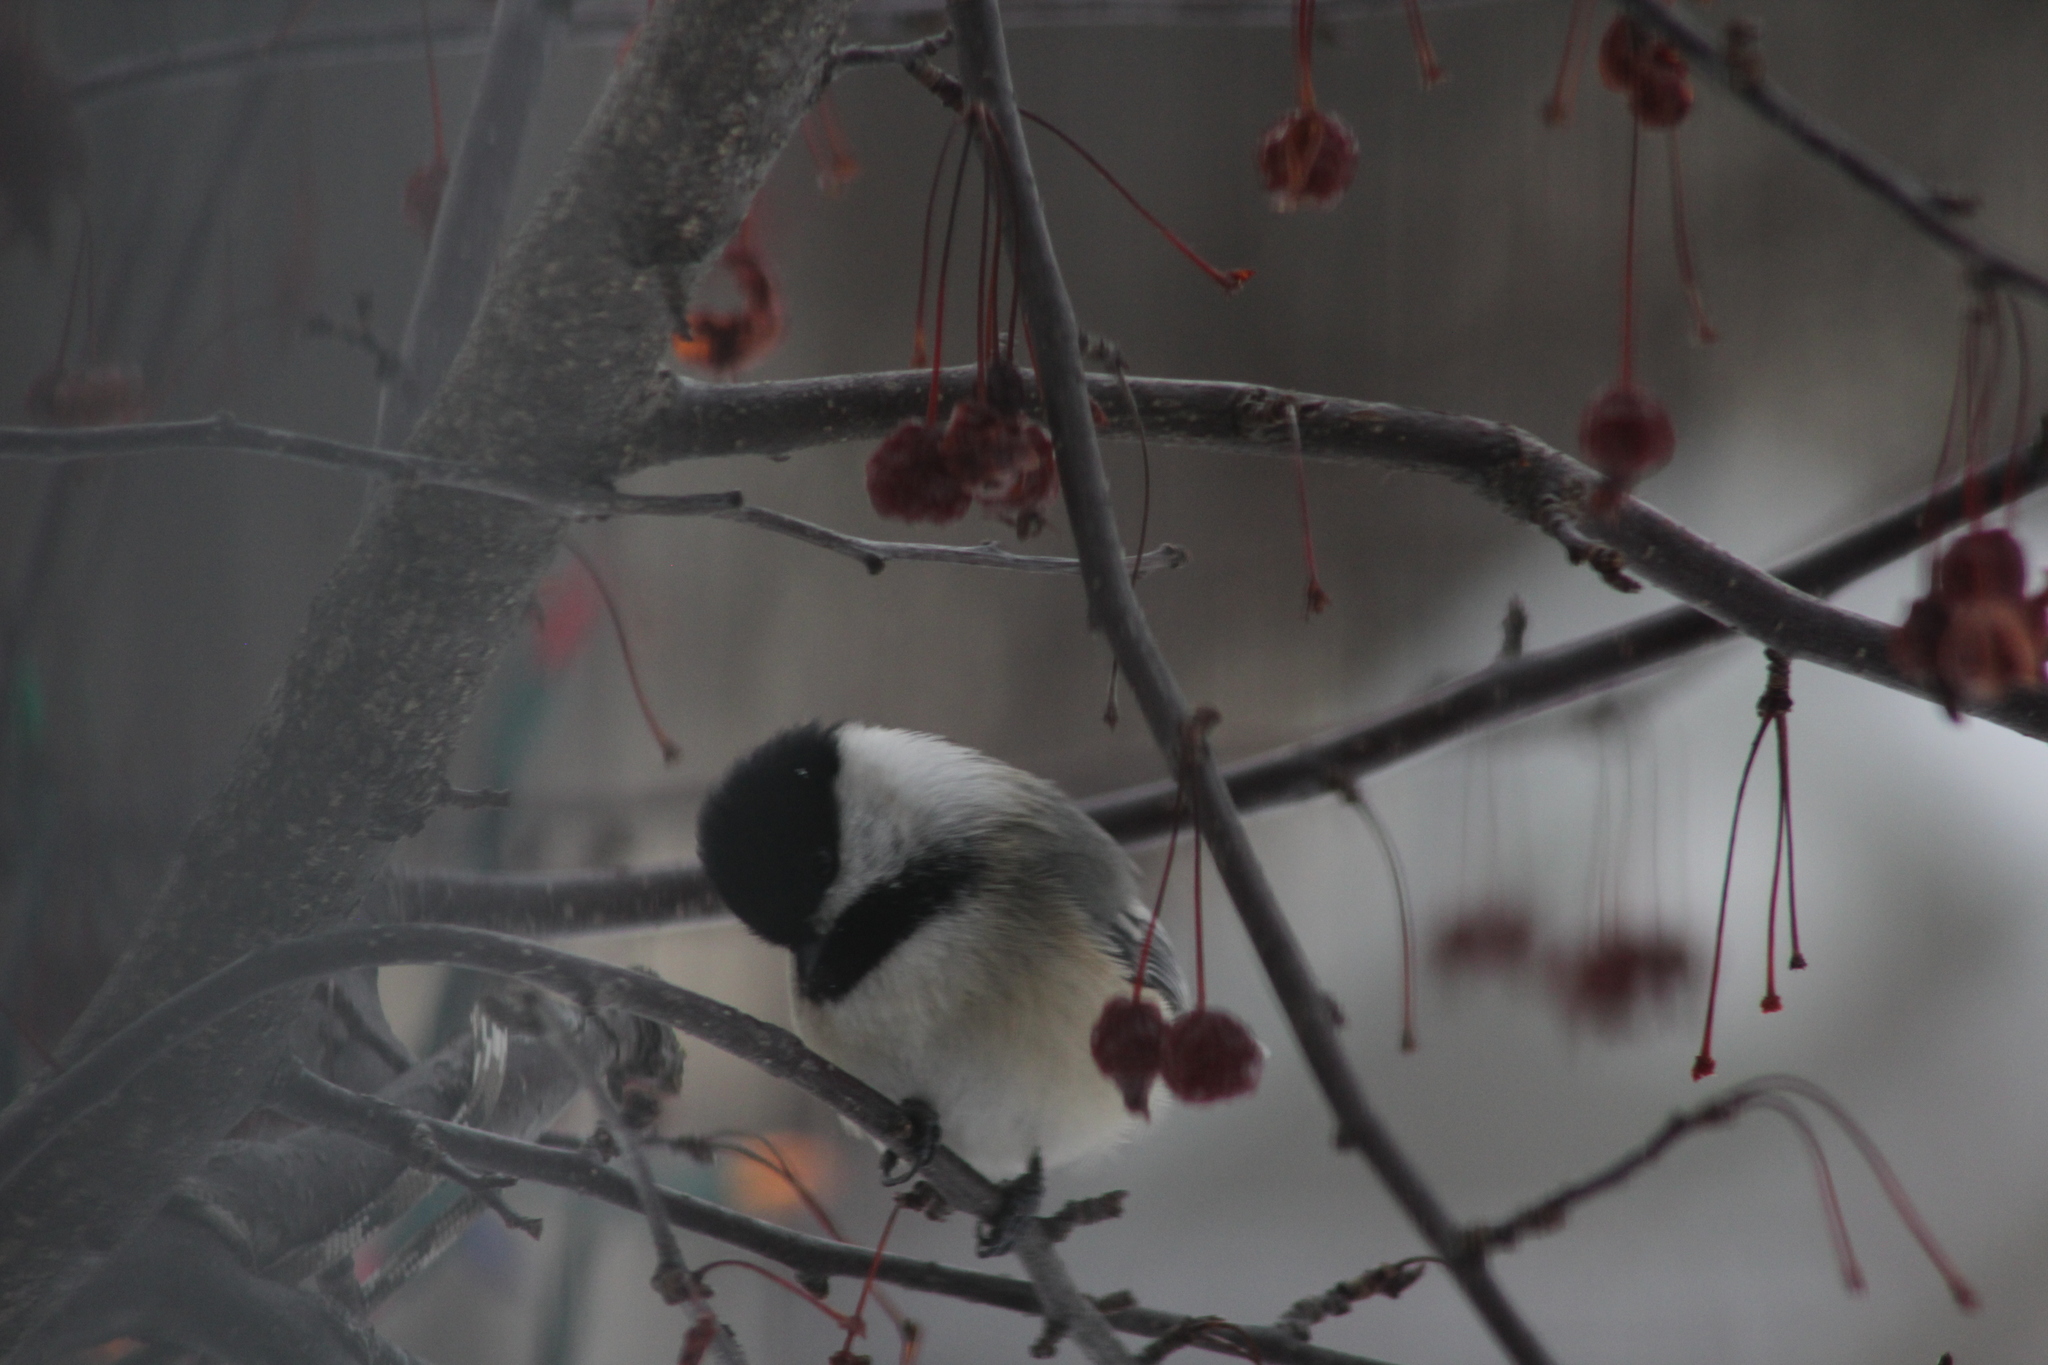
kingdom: Animalia
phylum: Chordata
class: Aves
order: Passeriformes
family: Paridae
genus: Poecile
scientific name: Poecile atricapillus
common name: Black-capped chickadee
